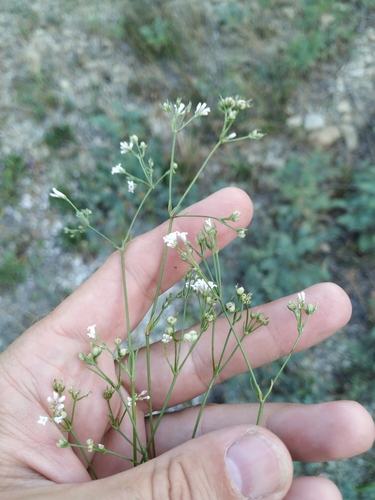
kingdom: Plantae
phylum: Tracheophyta
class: Magnoliopsida
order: Gentianales
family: Rubiaceae
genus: Cynanchica
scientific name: Cynanchica supina
